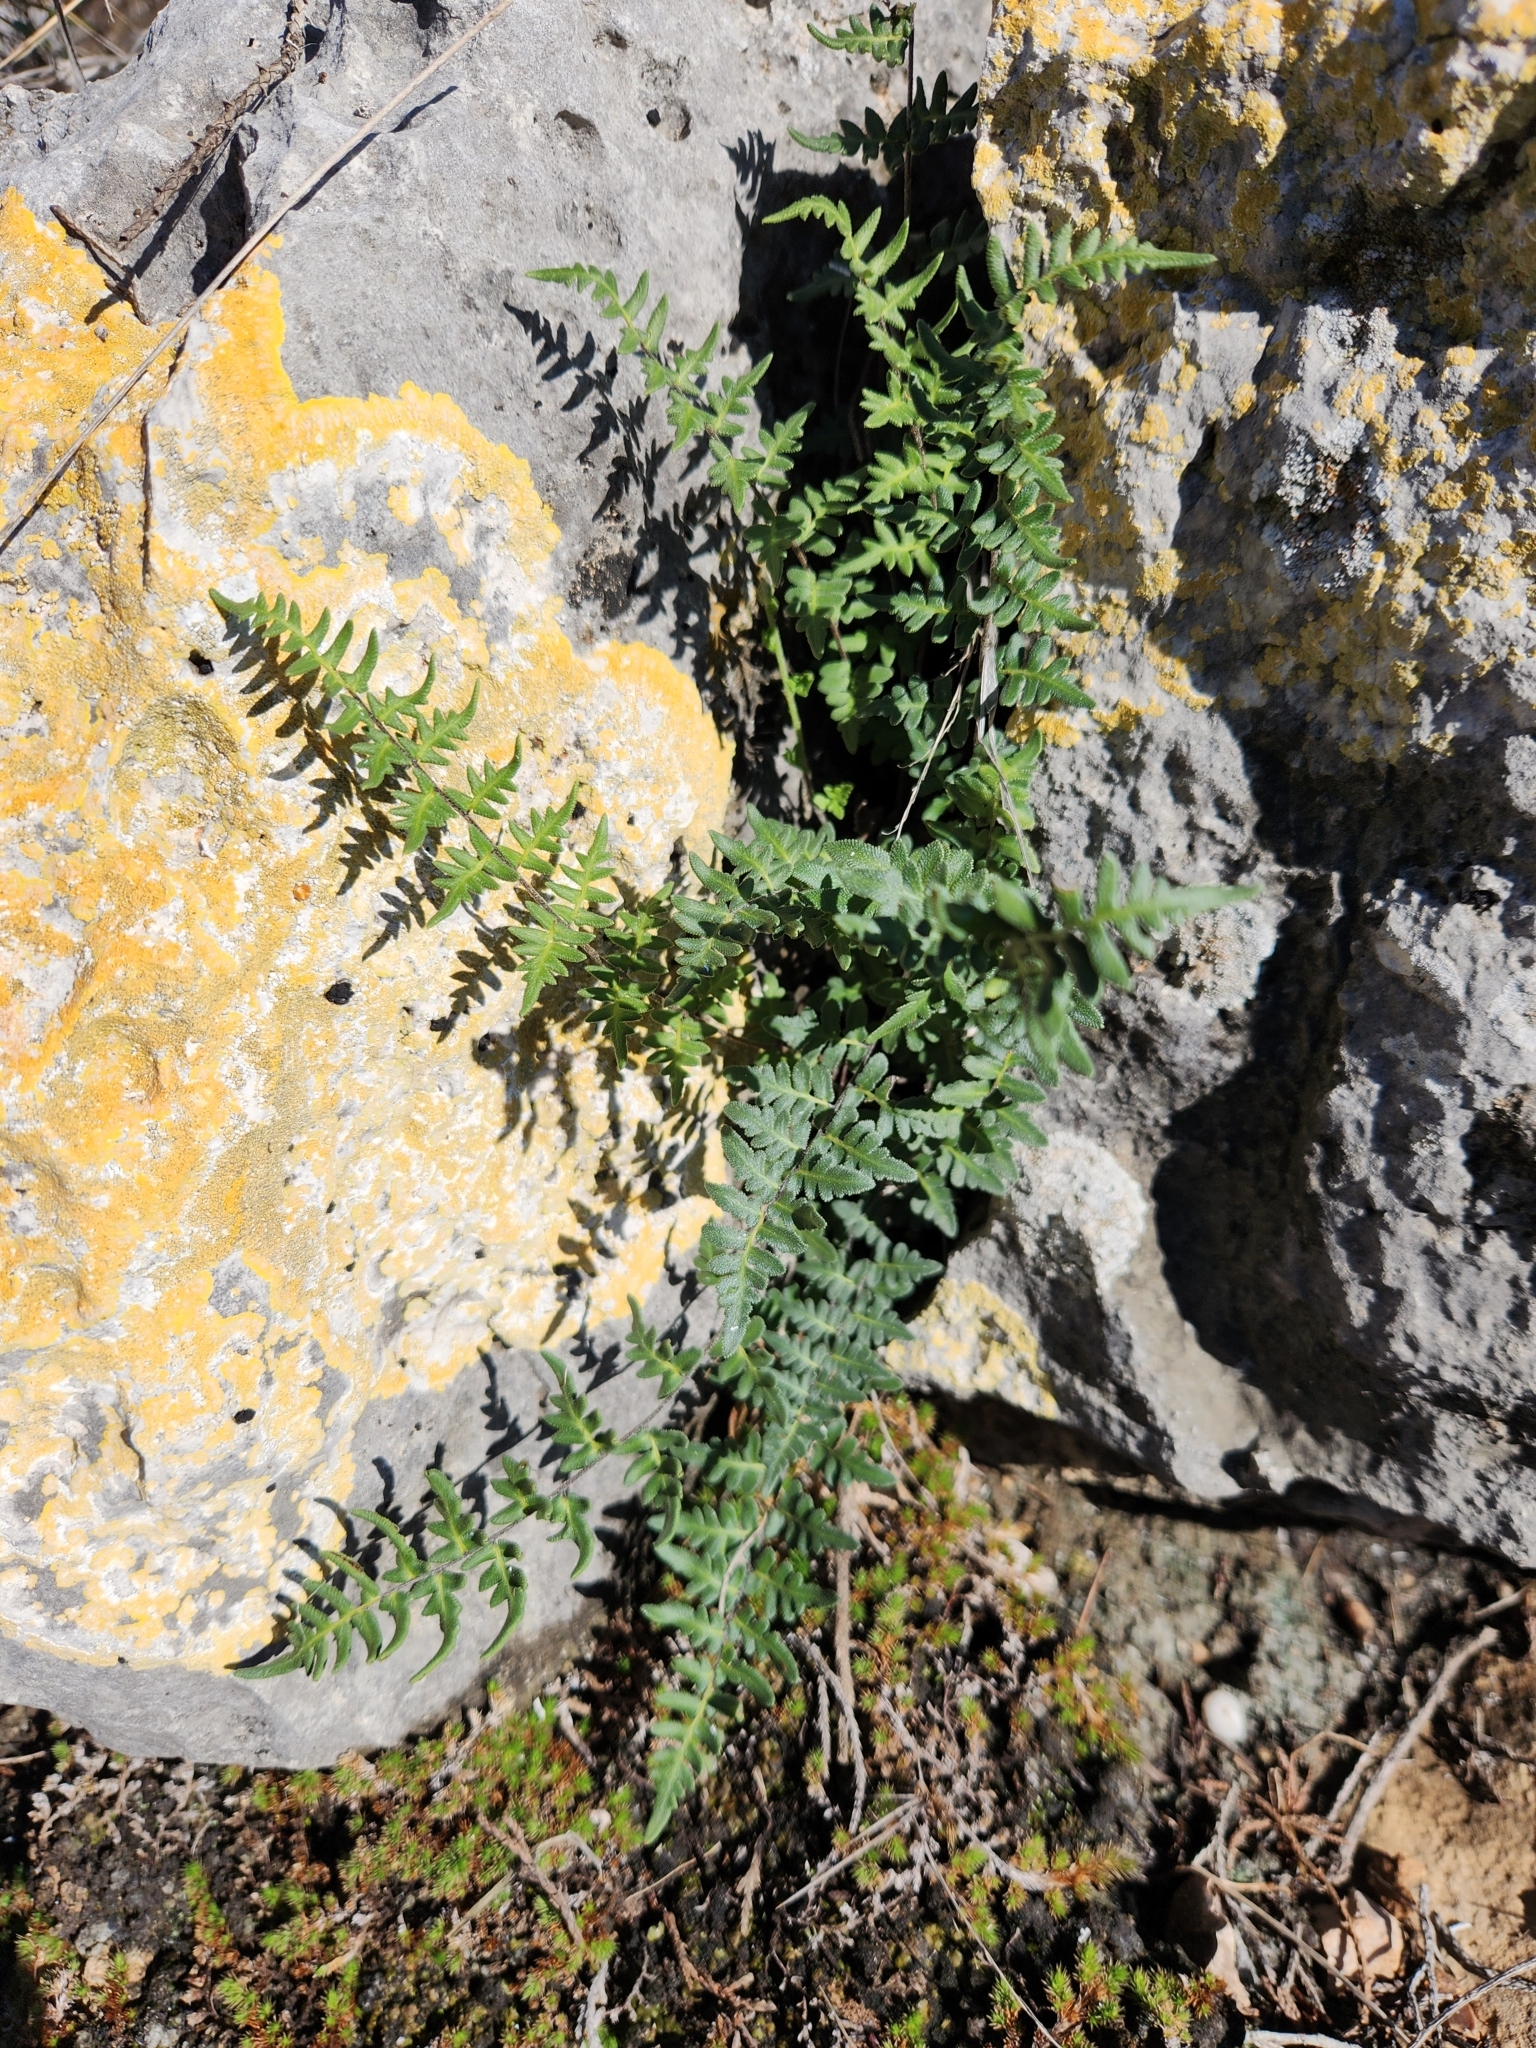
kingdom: Plantae
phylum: Tracheophyta
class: Polypodiopsida
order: Polypodiales
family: Pteridaceae
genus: Myriopteris
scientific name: Myriopteris scabra
